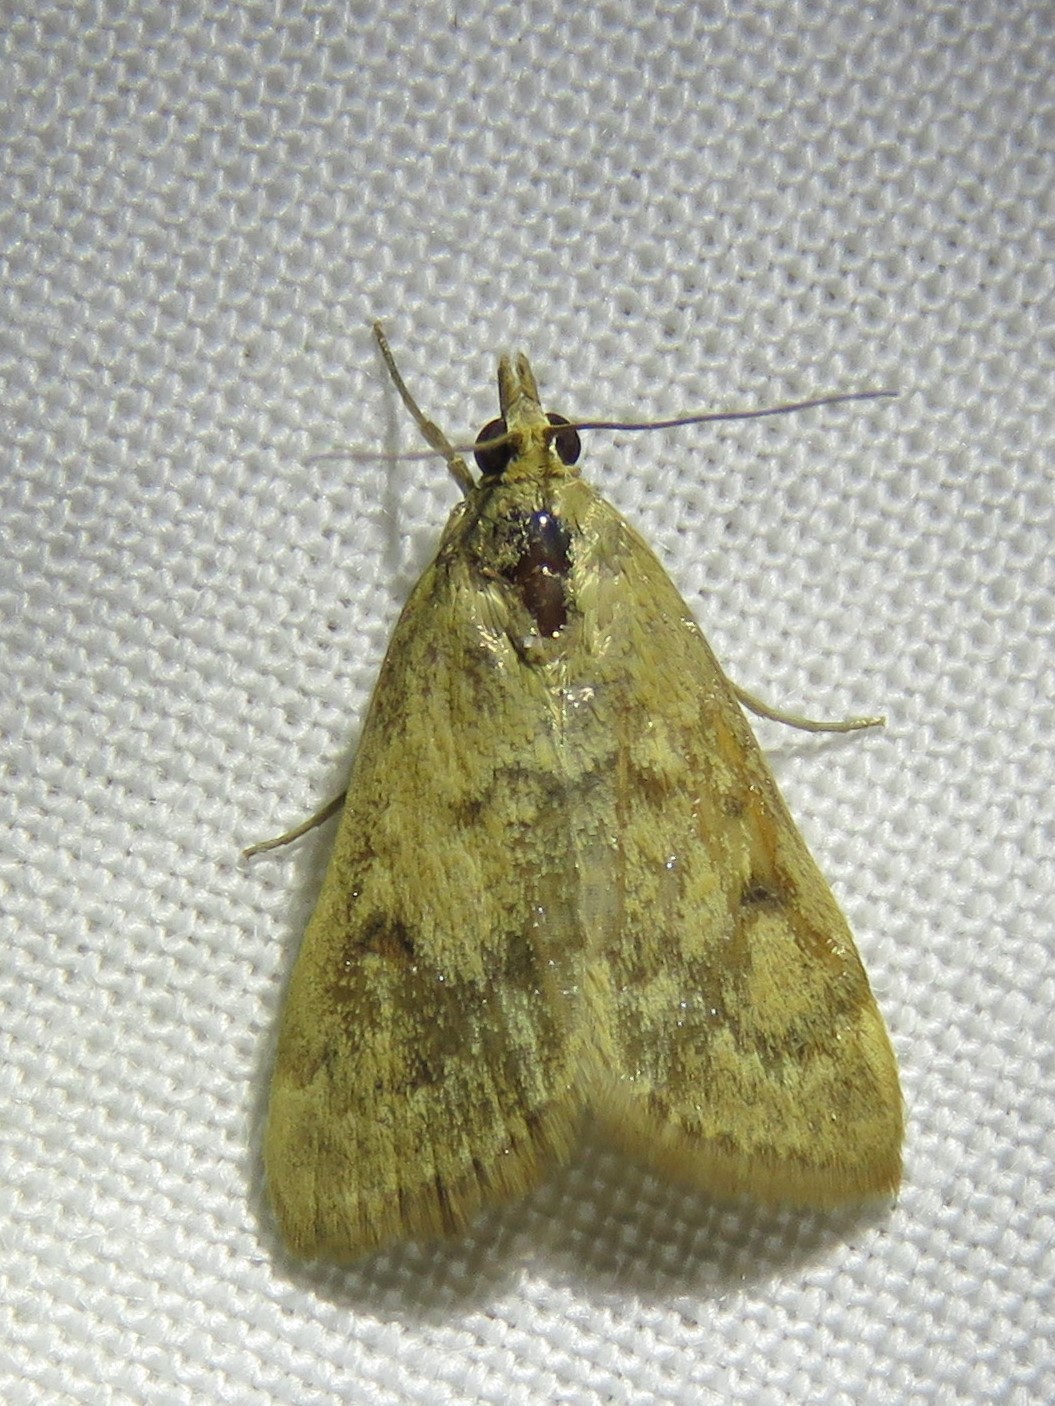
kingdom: Animalia
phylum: Arthropoda
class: Insecta
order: Lepidoptera
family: Crambidae
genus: Achyra
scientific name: Achyra rantalis
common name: Garden webworm
